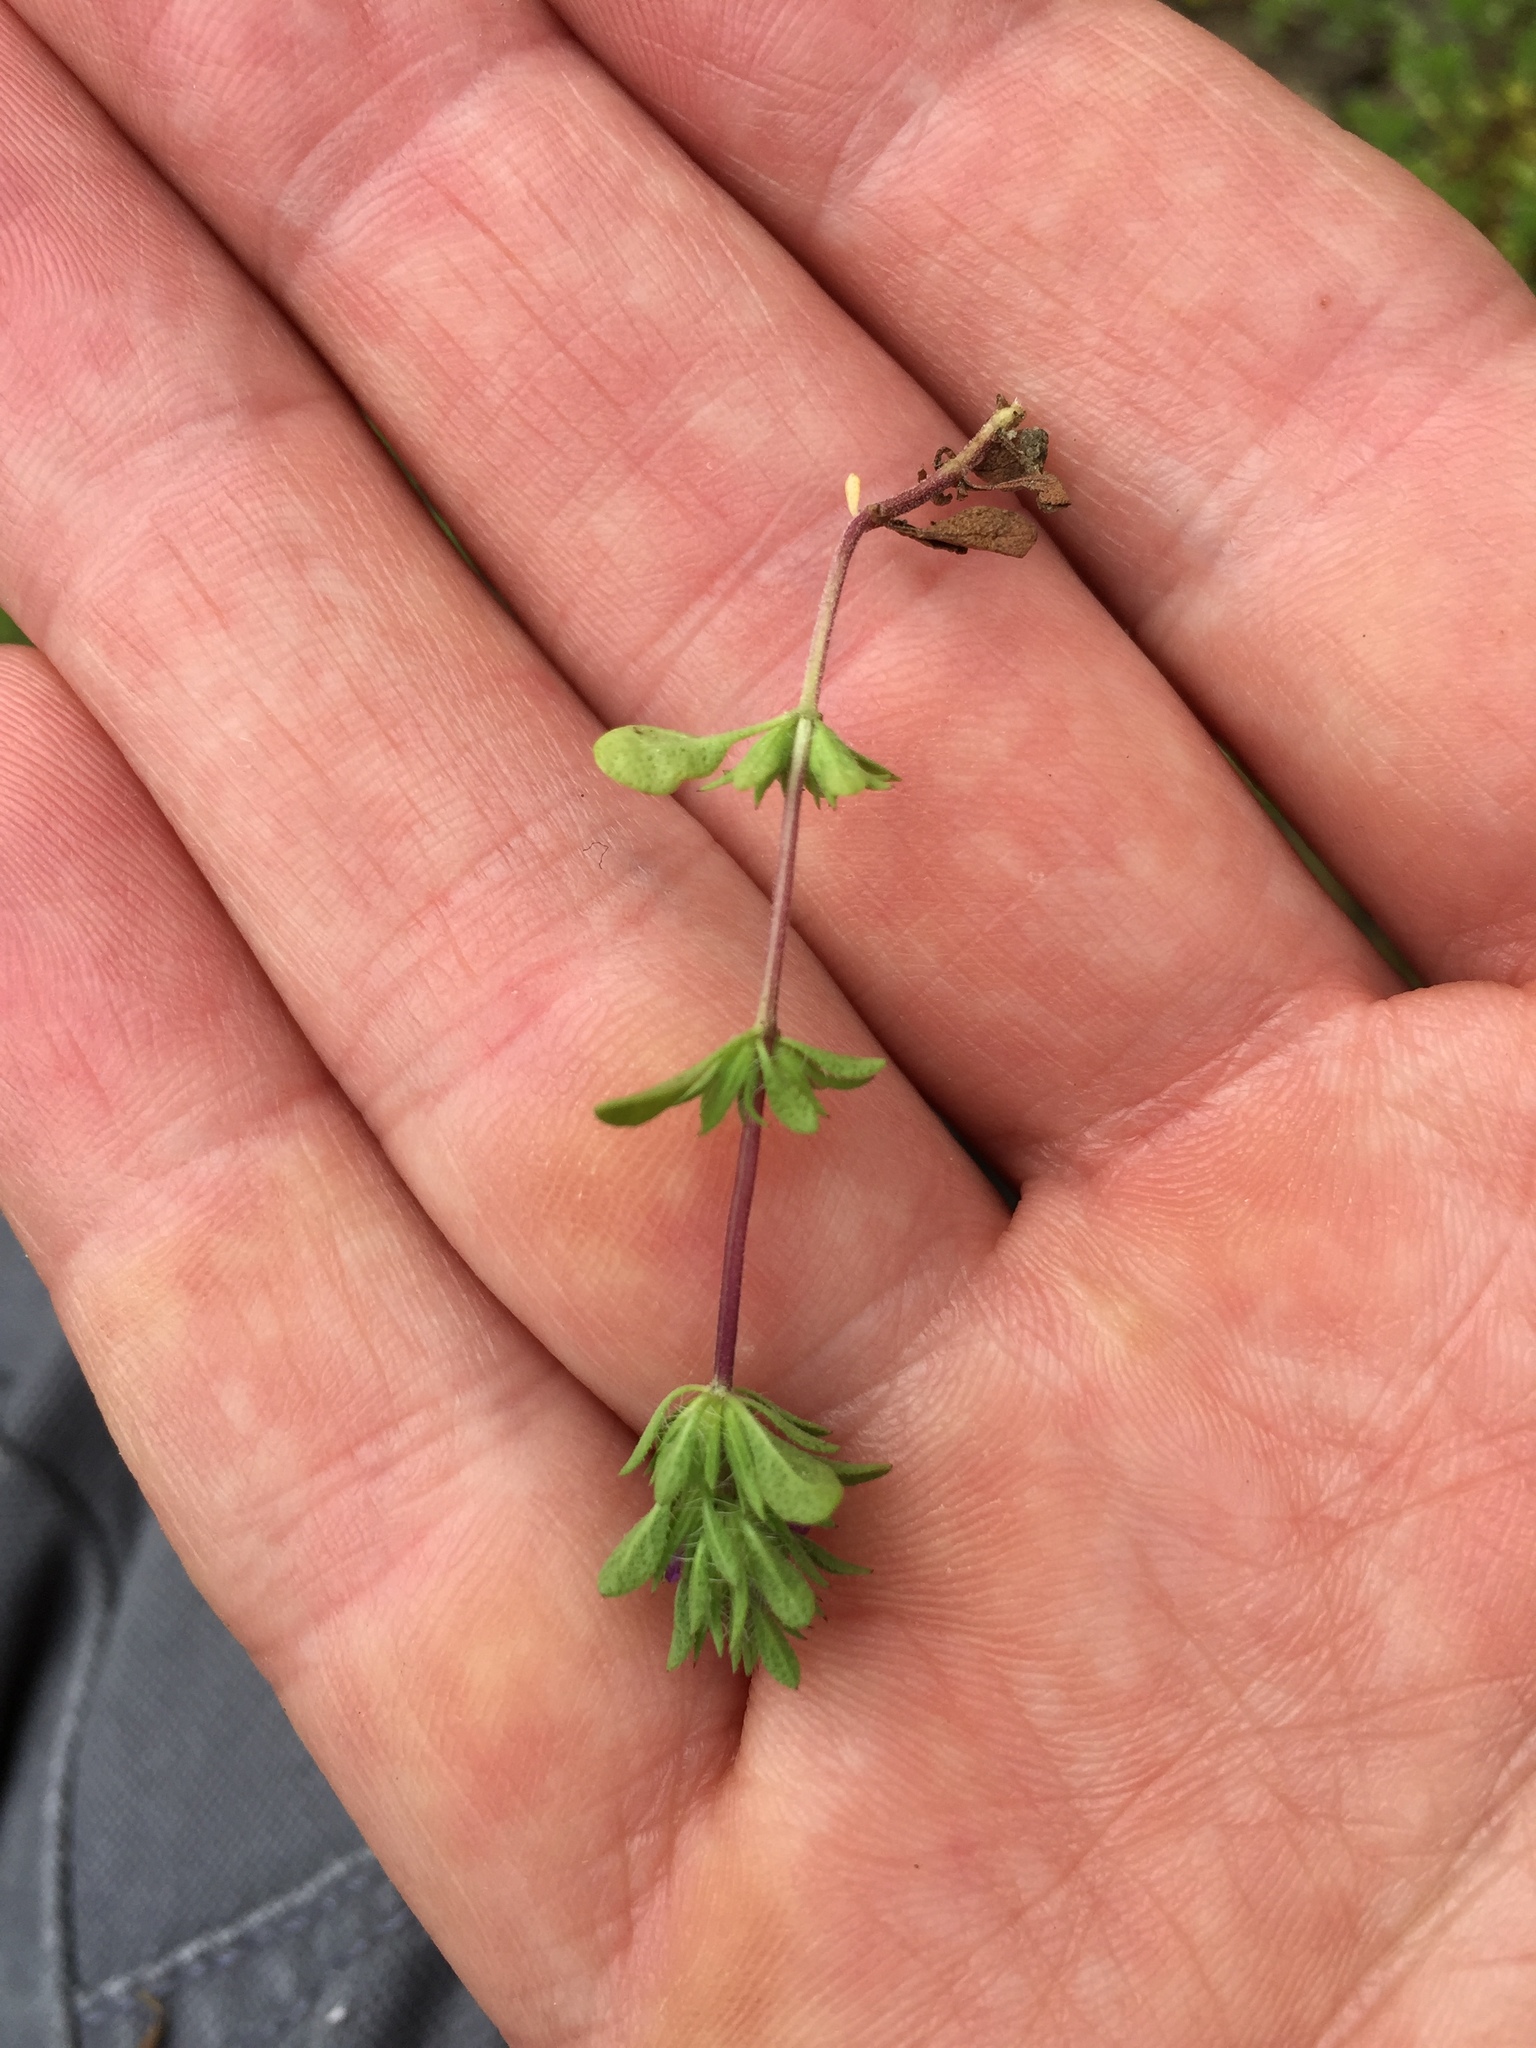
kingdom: Plantae
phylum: Tracheophyta
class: Magnoliopsida
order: Lamiales
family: Lamiaceae
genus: Pogogyne
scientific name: Pogogyne serpylloides
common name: Thymeleaf mesamint
